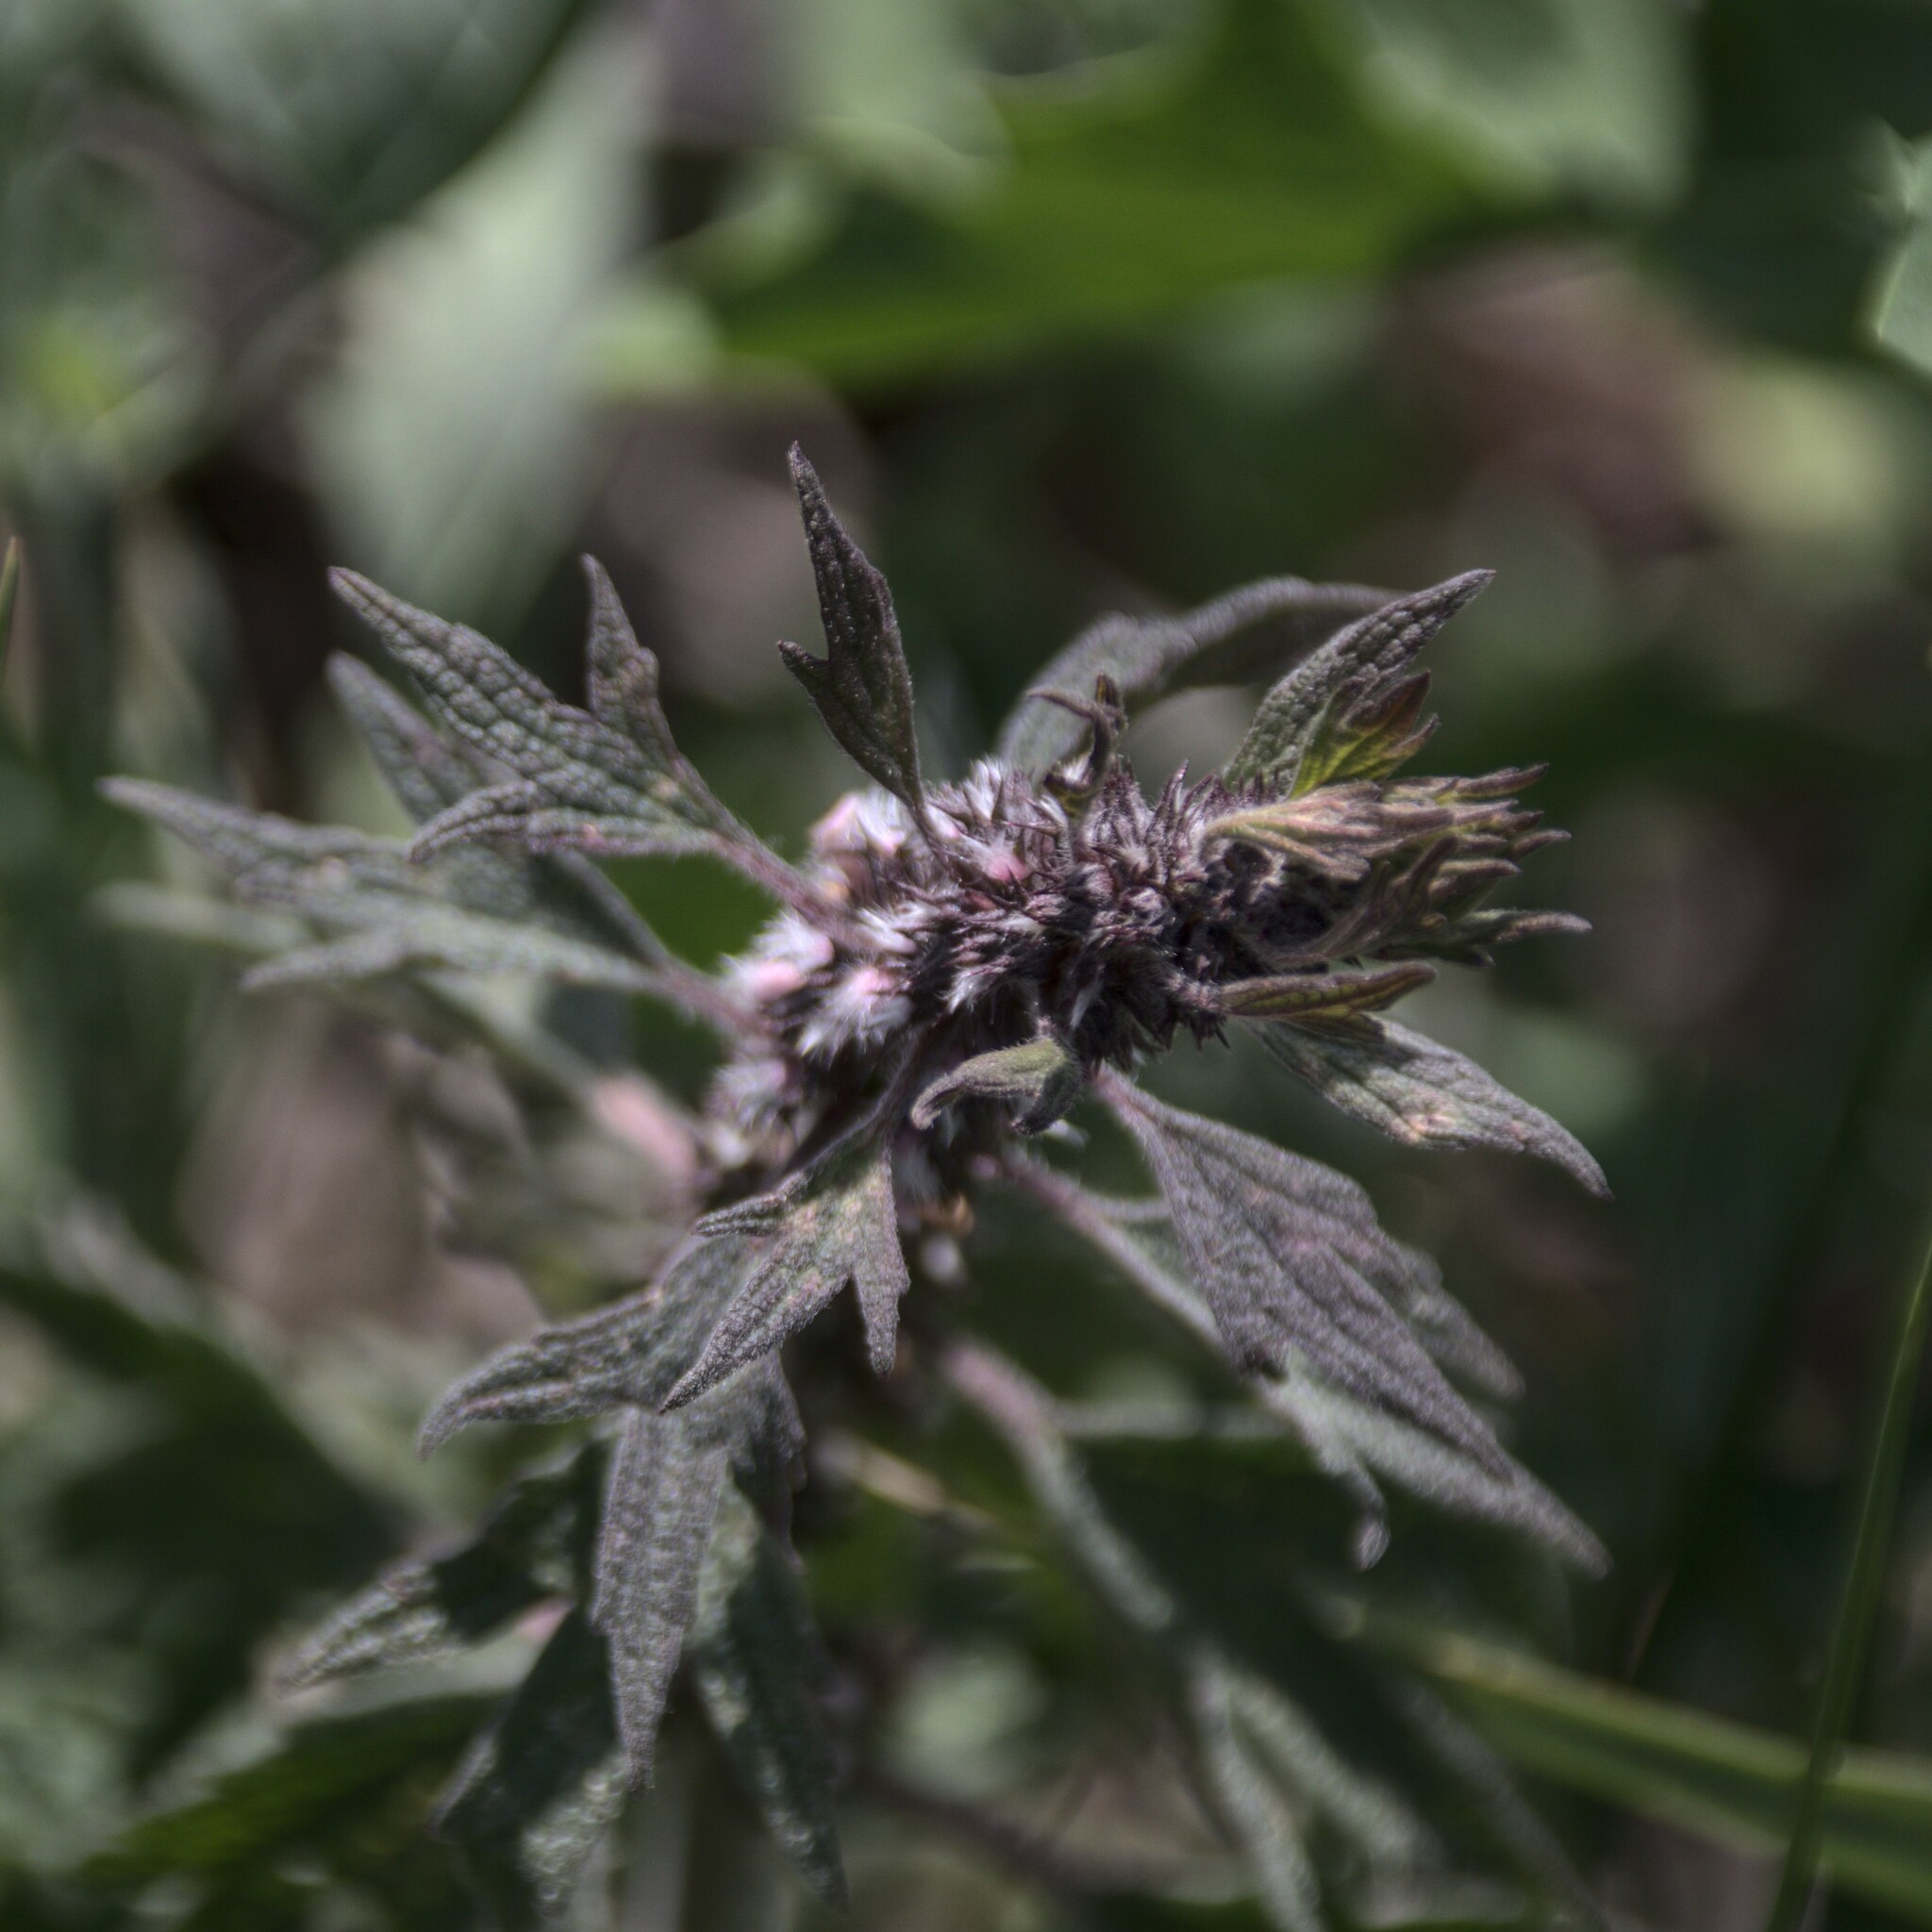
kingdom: Plantae
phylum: Tracheophyta
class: Magnoliopsida
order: Lamiales
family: Lamiaceae
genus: Leonurus
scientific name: Leonurus quinquelobatus
